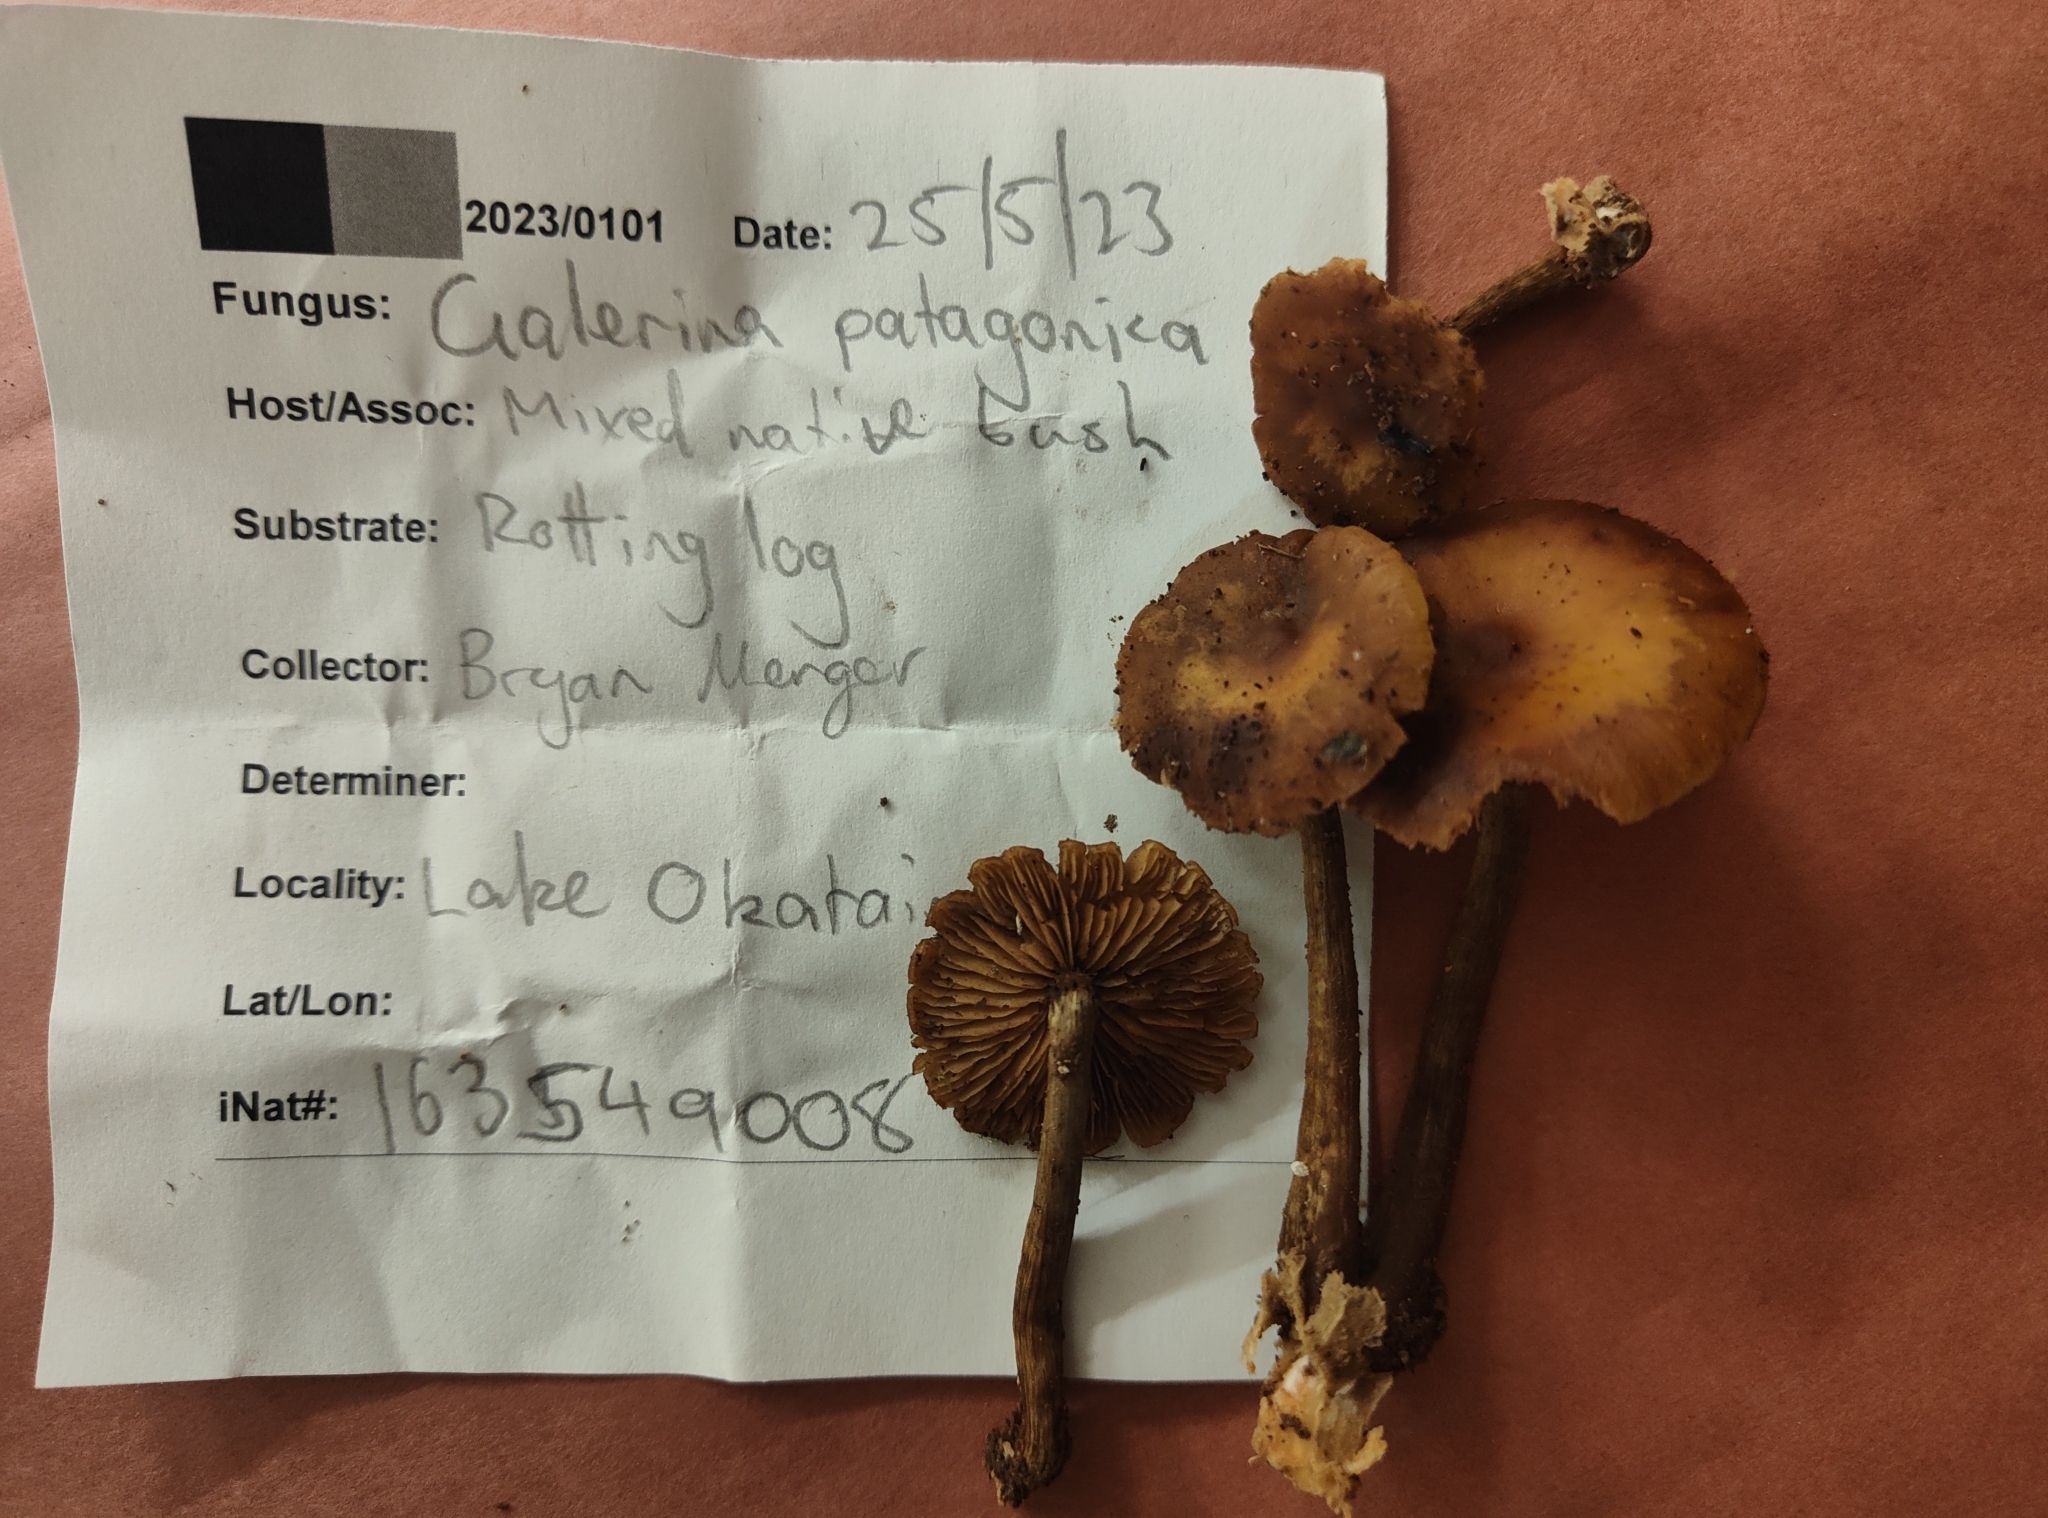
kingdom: Fungi
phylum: Basidiomycota
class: Agaricomycetes
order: Agaricales
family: Hymenogastraceae
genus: Galerina
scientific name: Galerina patagonica
